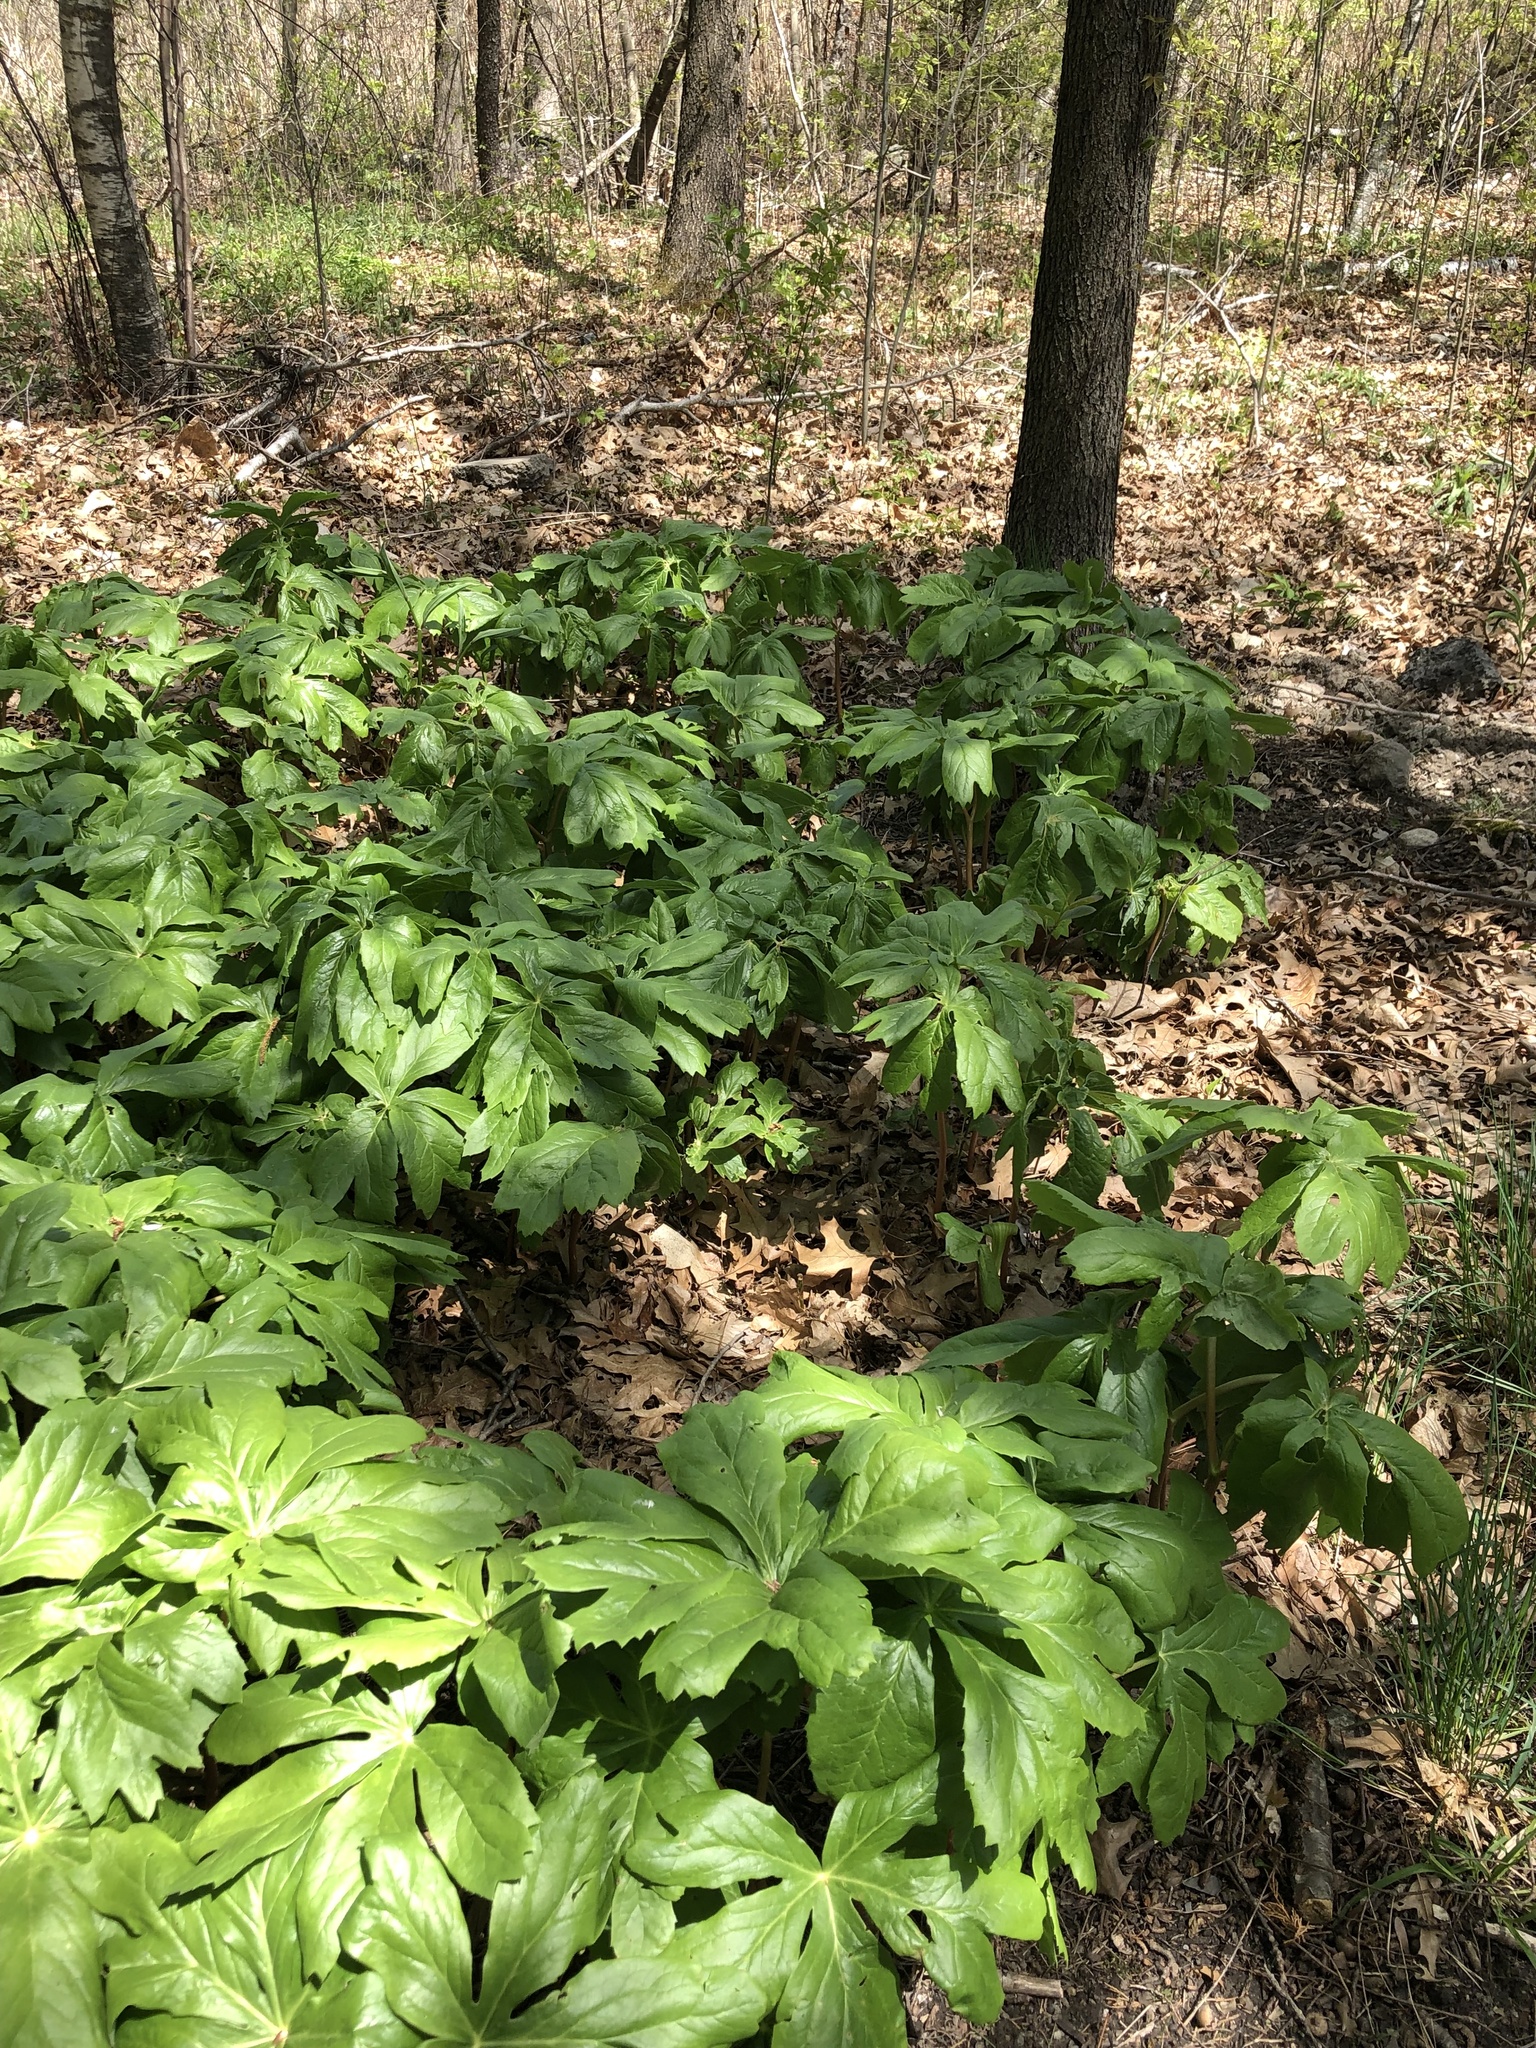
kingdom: Plantae
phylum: Tracheophyta
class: Magnoliopsida
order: Ranunculales
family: Berberidaceae
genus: Podophyllum
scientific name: Podophyllum peltatum
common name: Wild mandrake
